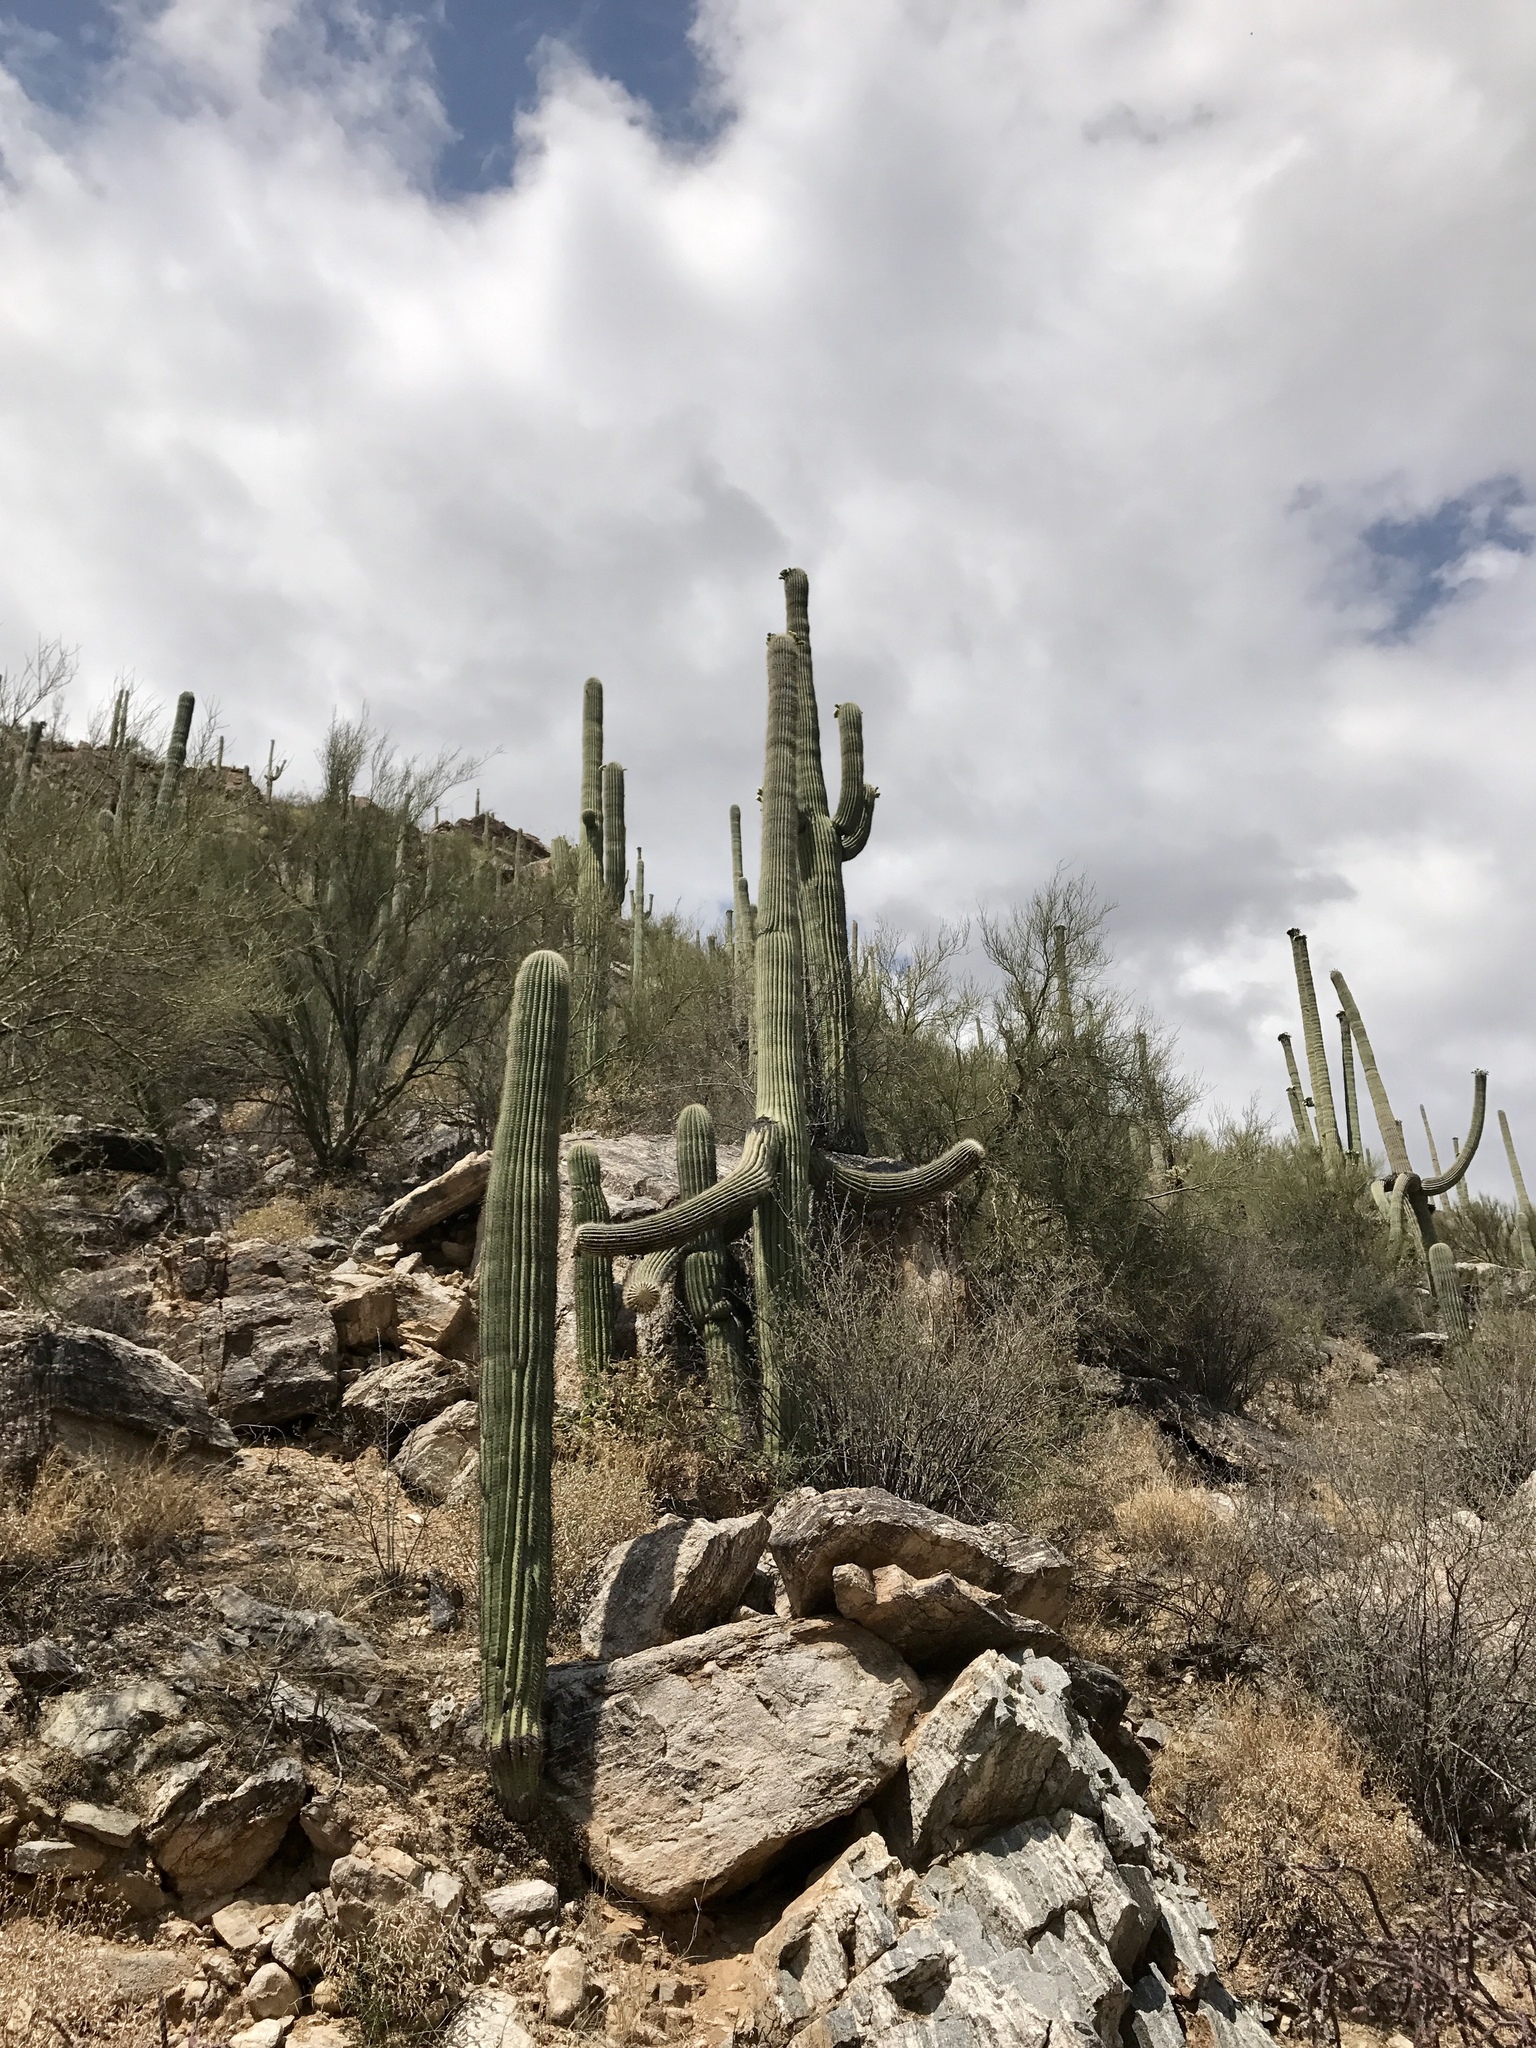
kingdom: Plantae
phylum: Tracheophyta
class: Magnoliopsida
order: Caryophyllales
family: Cactaceae
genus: Carnegiea
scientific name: Carnegiea gigantea
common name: Saguaro
